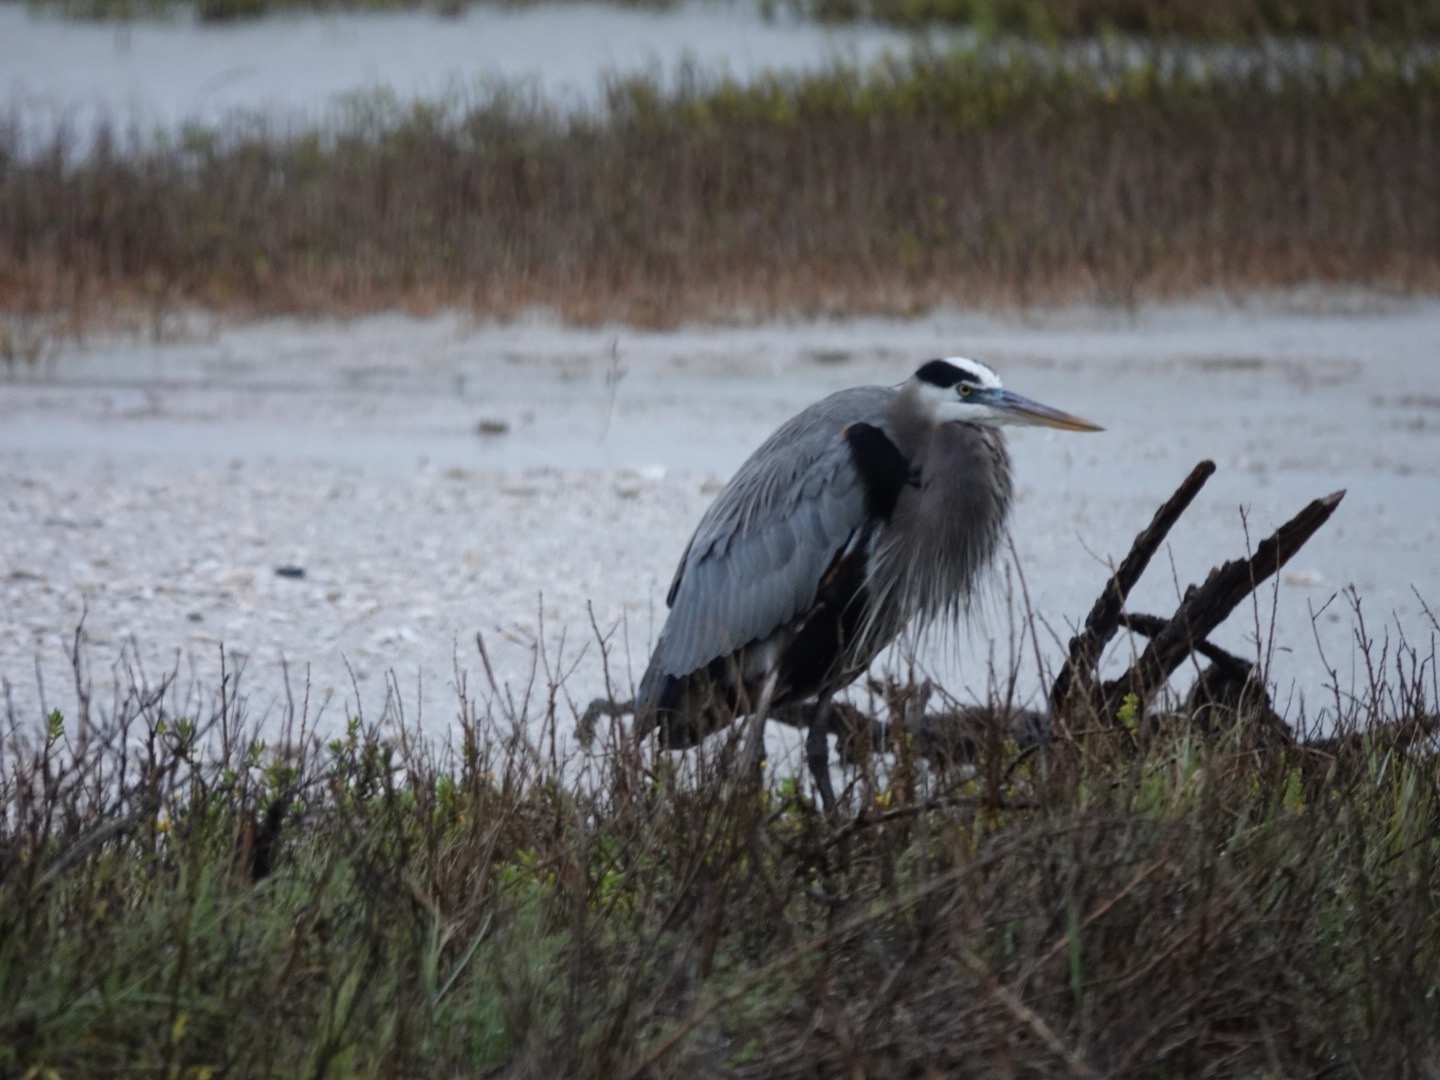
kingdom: Animalia
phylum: Chordata
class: Aves
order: Pelecaniformes
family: Ardeidae
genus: Ardea
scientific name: Ardea herodias
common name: Great blue heron
